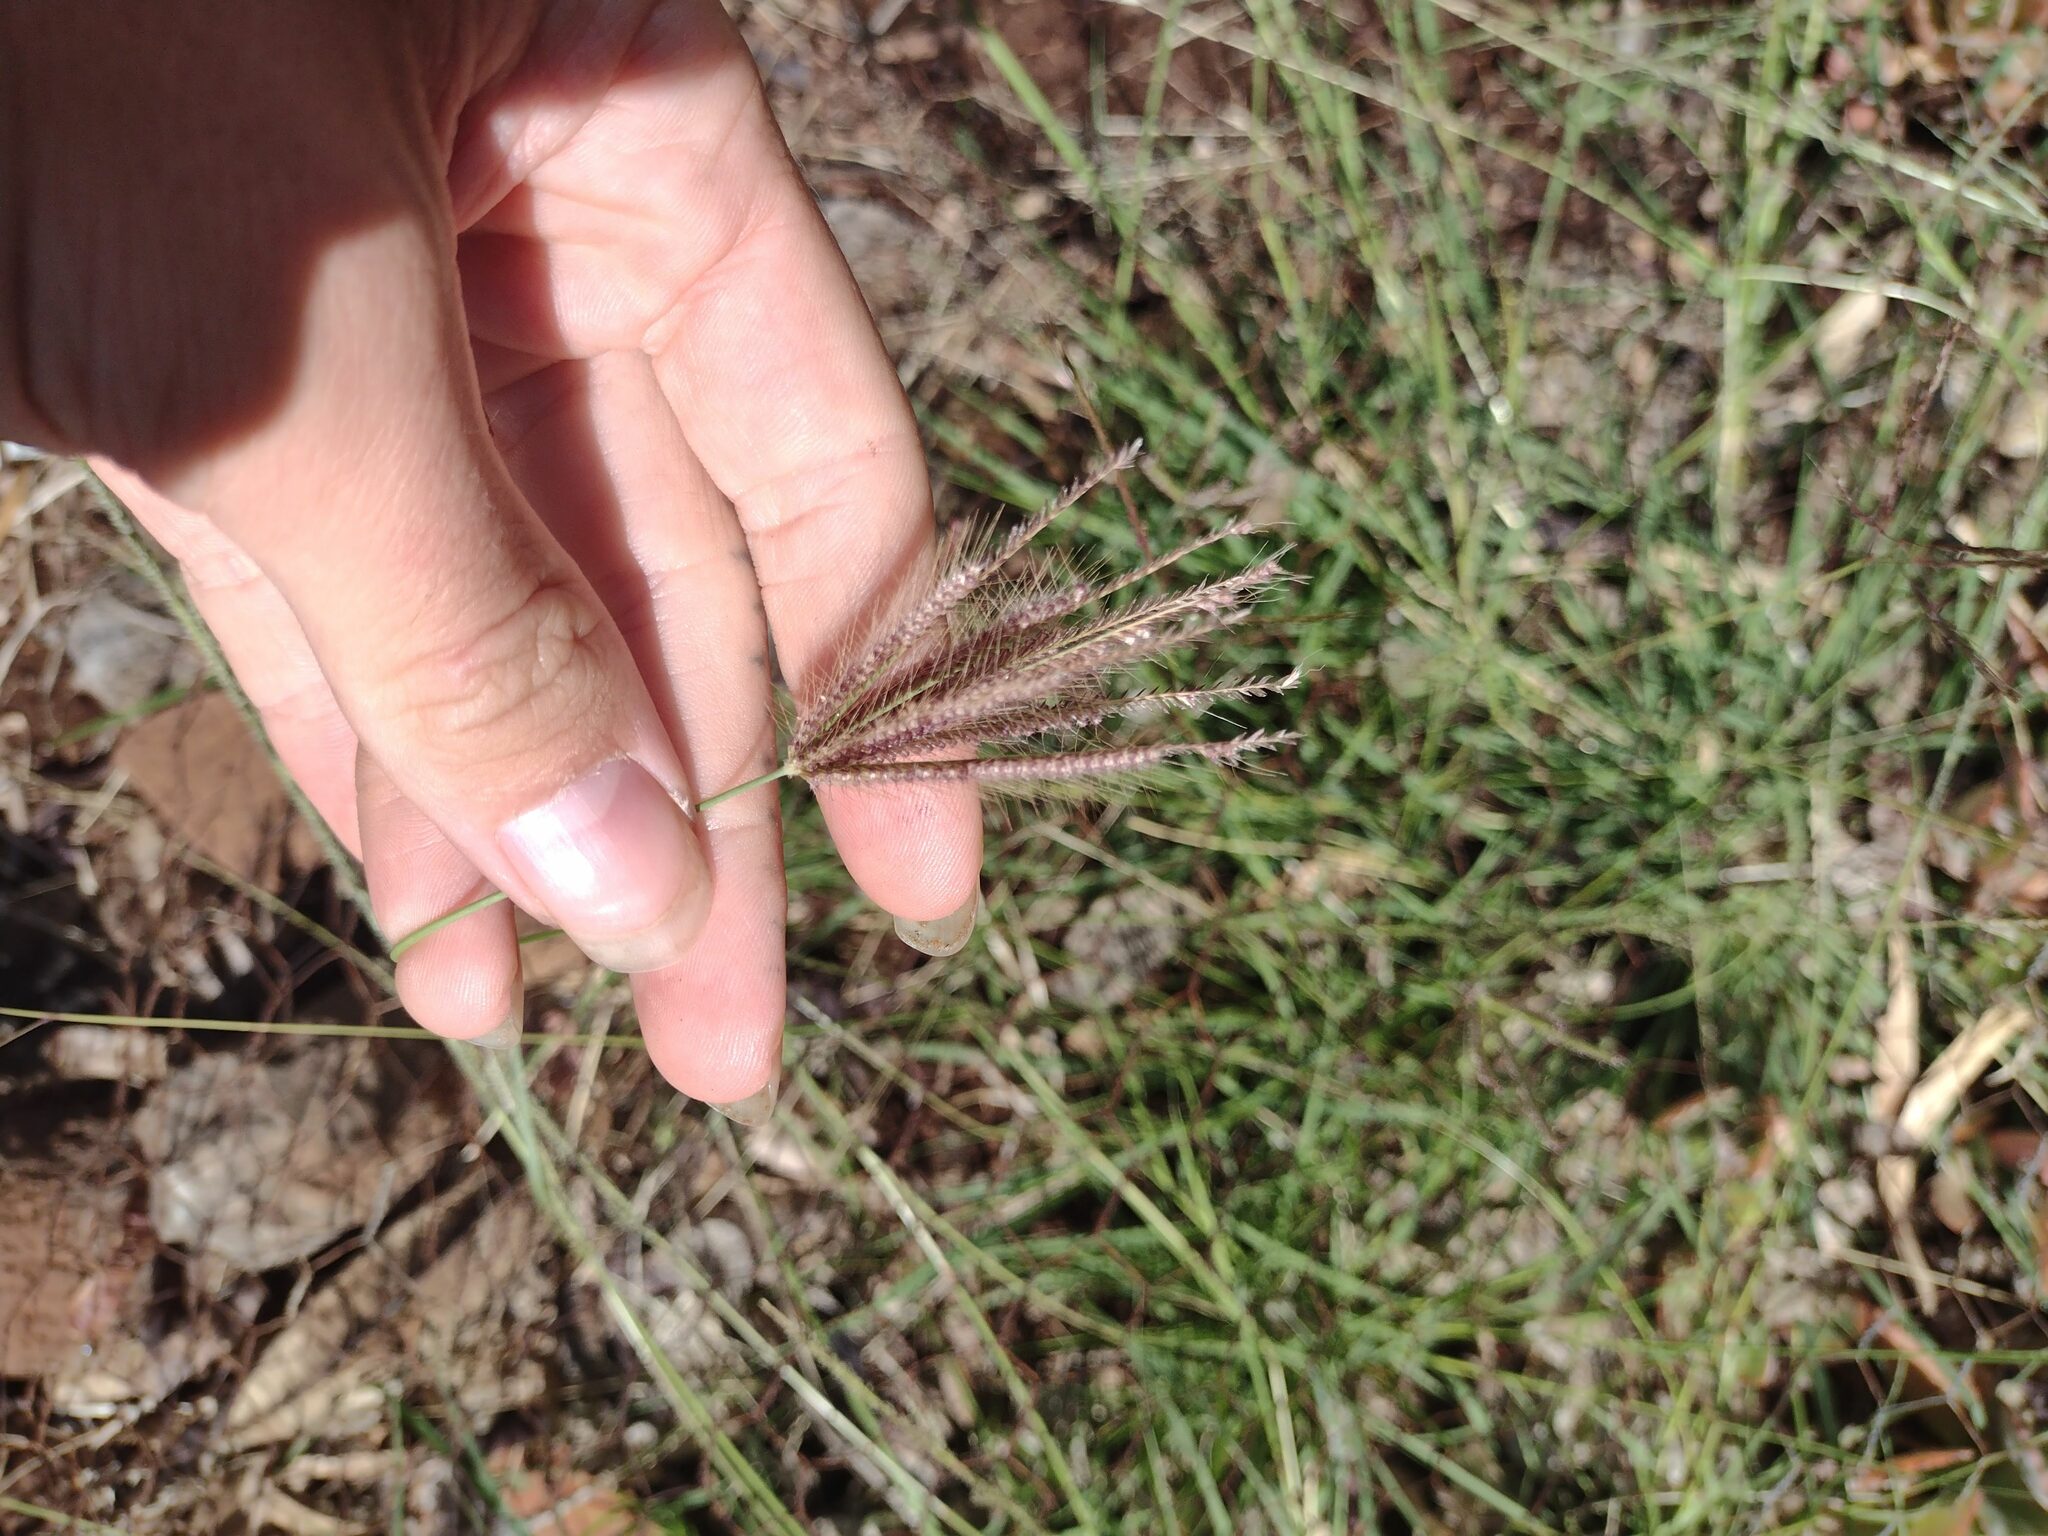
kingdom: Plantae
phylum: Tracheophyta
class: Liliopsida
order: Poales
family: Poaceae
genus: Chloris
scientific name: Chloris barbata
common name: Swollen fingergrass
